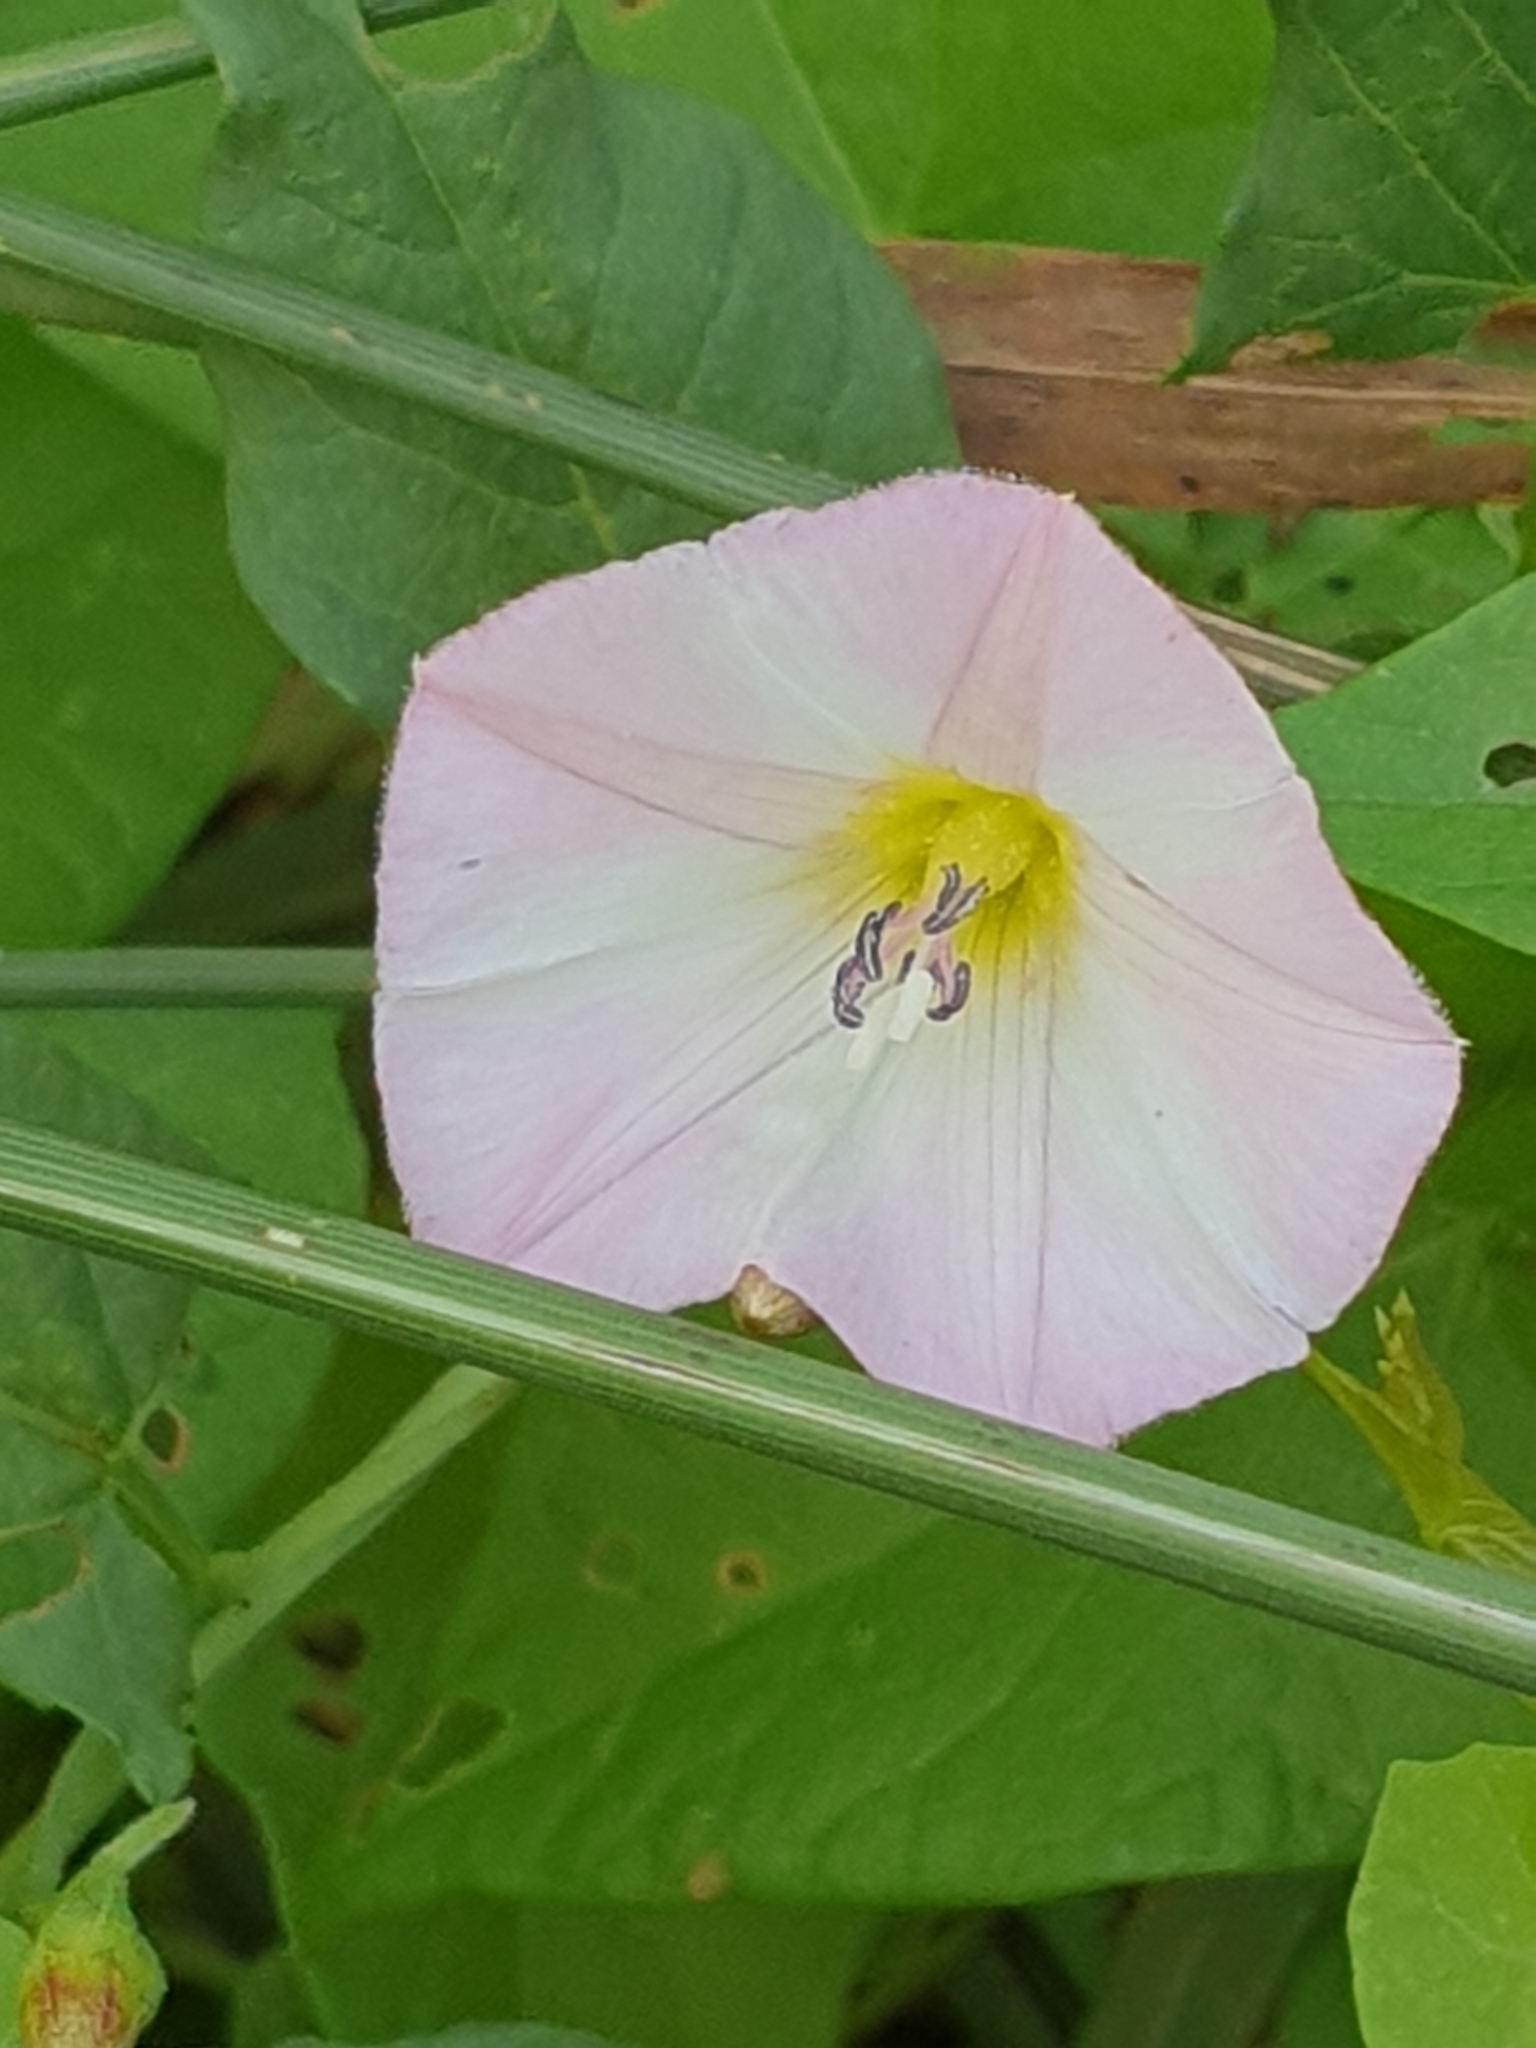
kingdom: Plantae
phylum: Tracheophyta
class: Magnoliopsida
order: Solanales
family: Convolvulaceae
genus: Convolvulus
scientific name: Convolvulus arvensis
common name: Field bindweed
